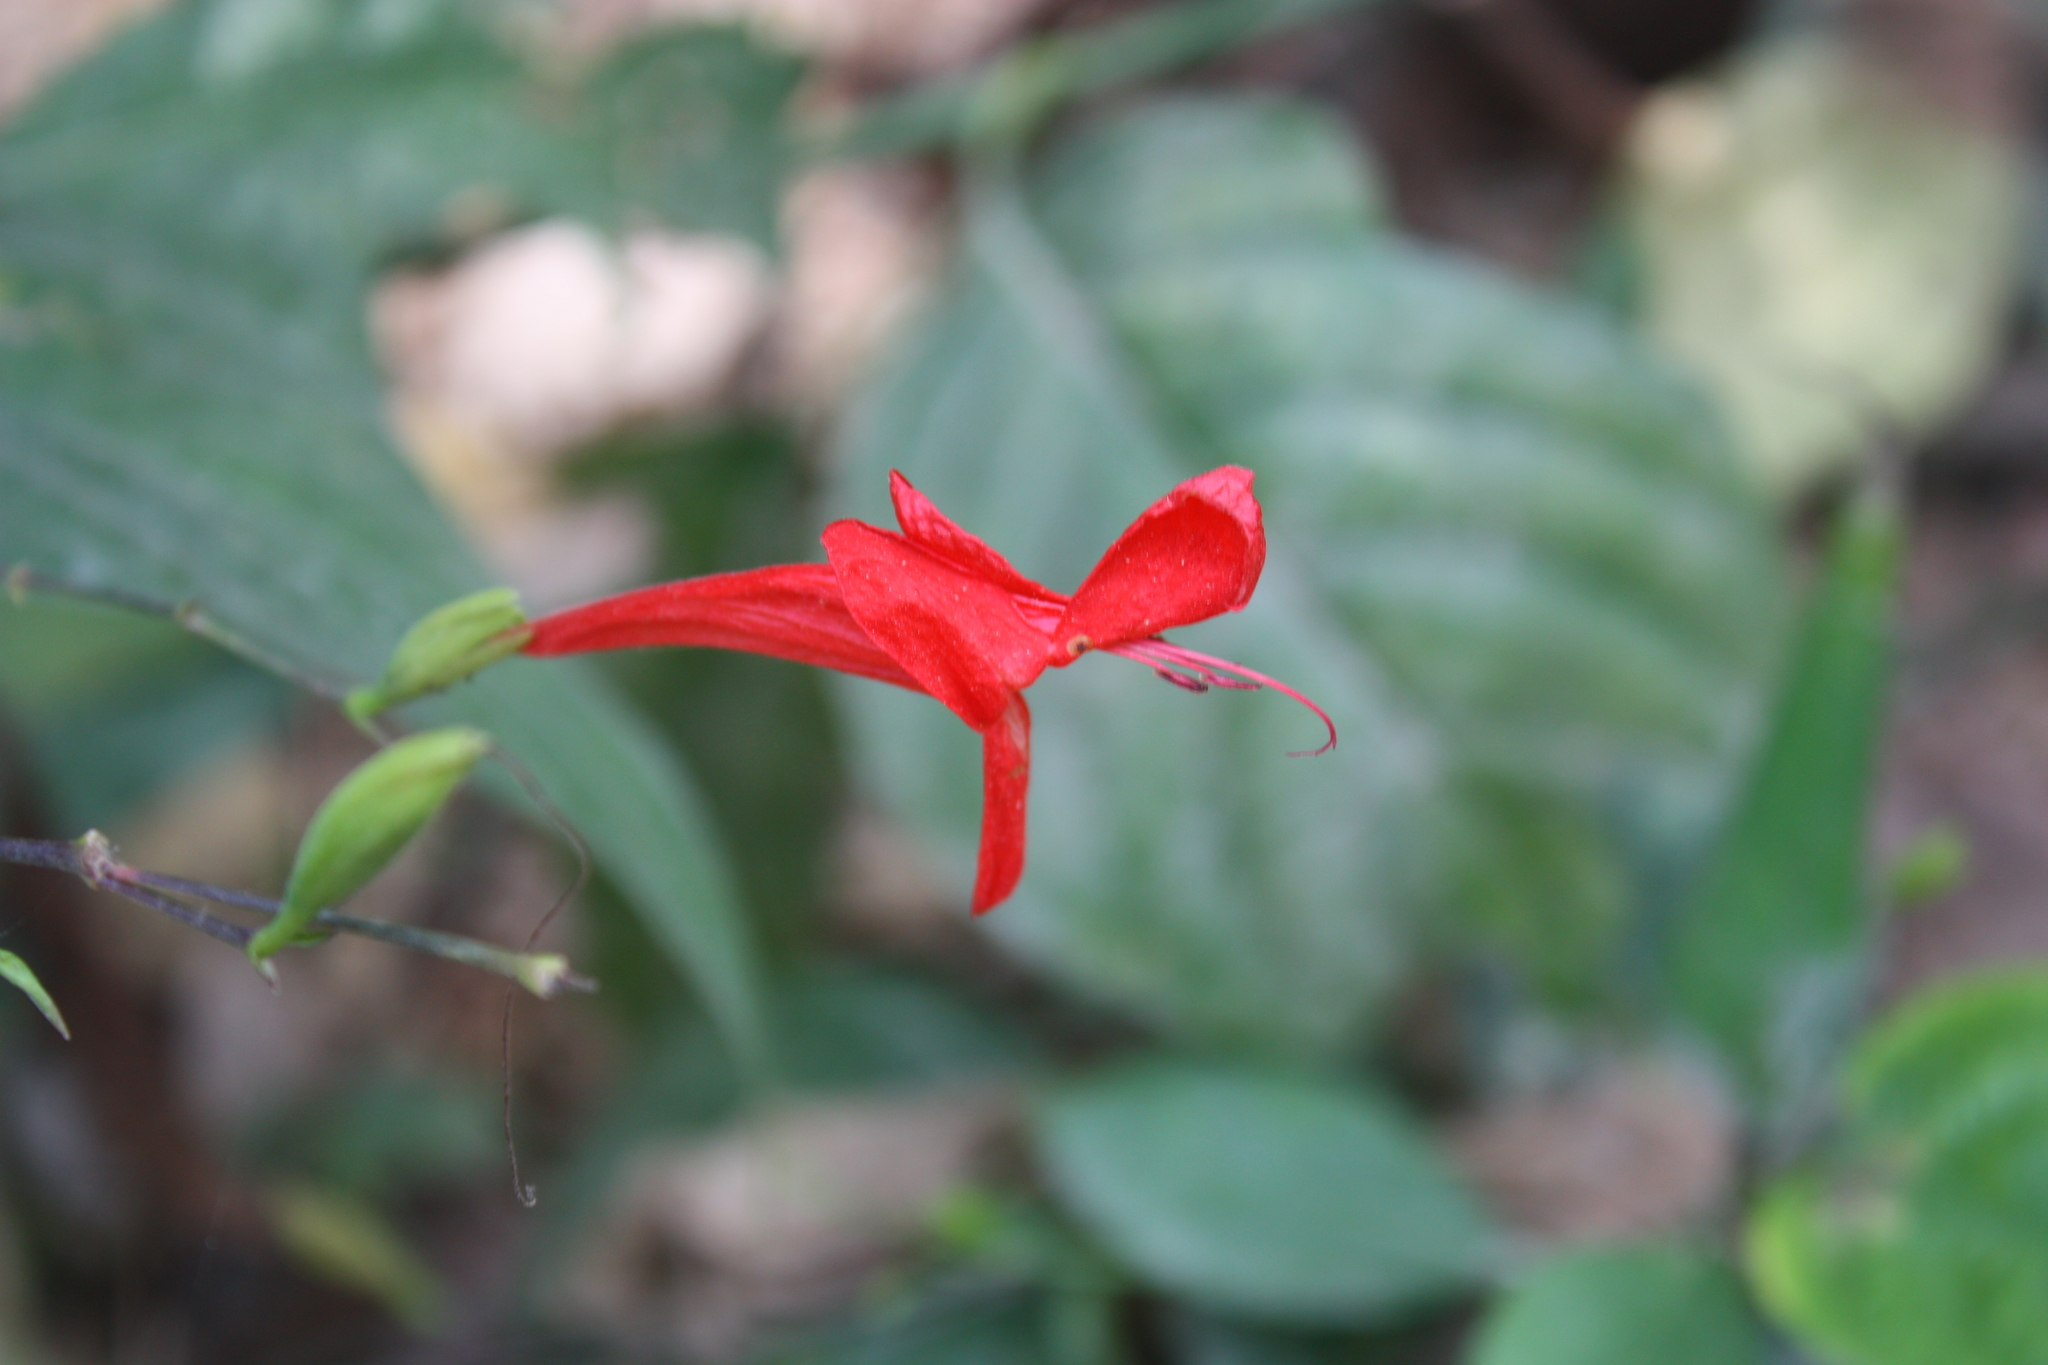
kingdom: Plantae
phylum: Tracheophyta
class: Magnoliopsida
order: Lamiales
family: Acanthaceae
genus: Ruellia
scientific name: Ruellia macrophylla
